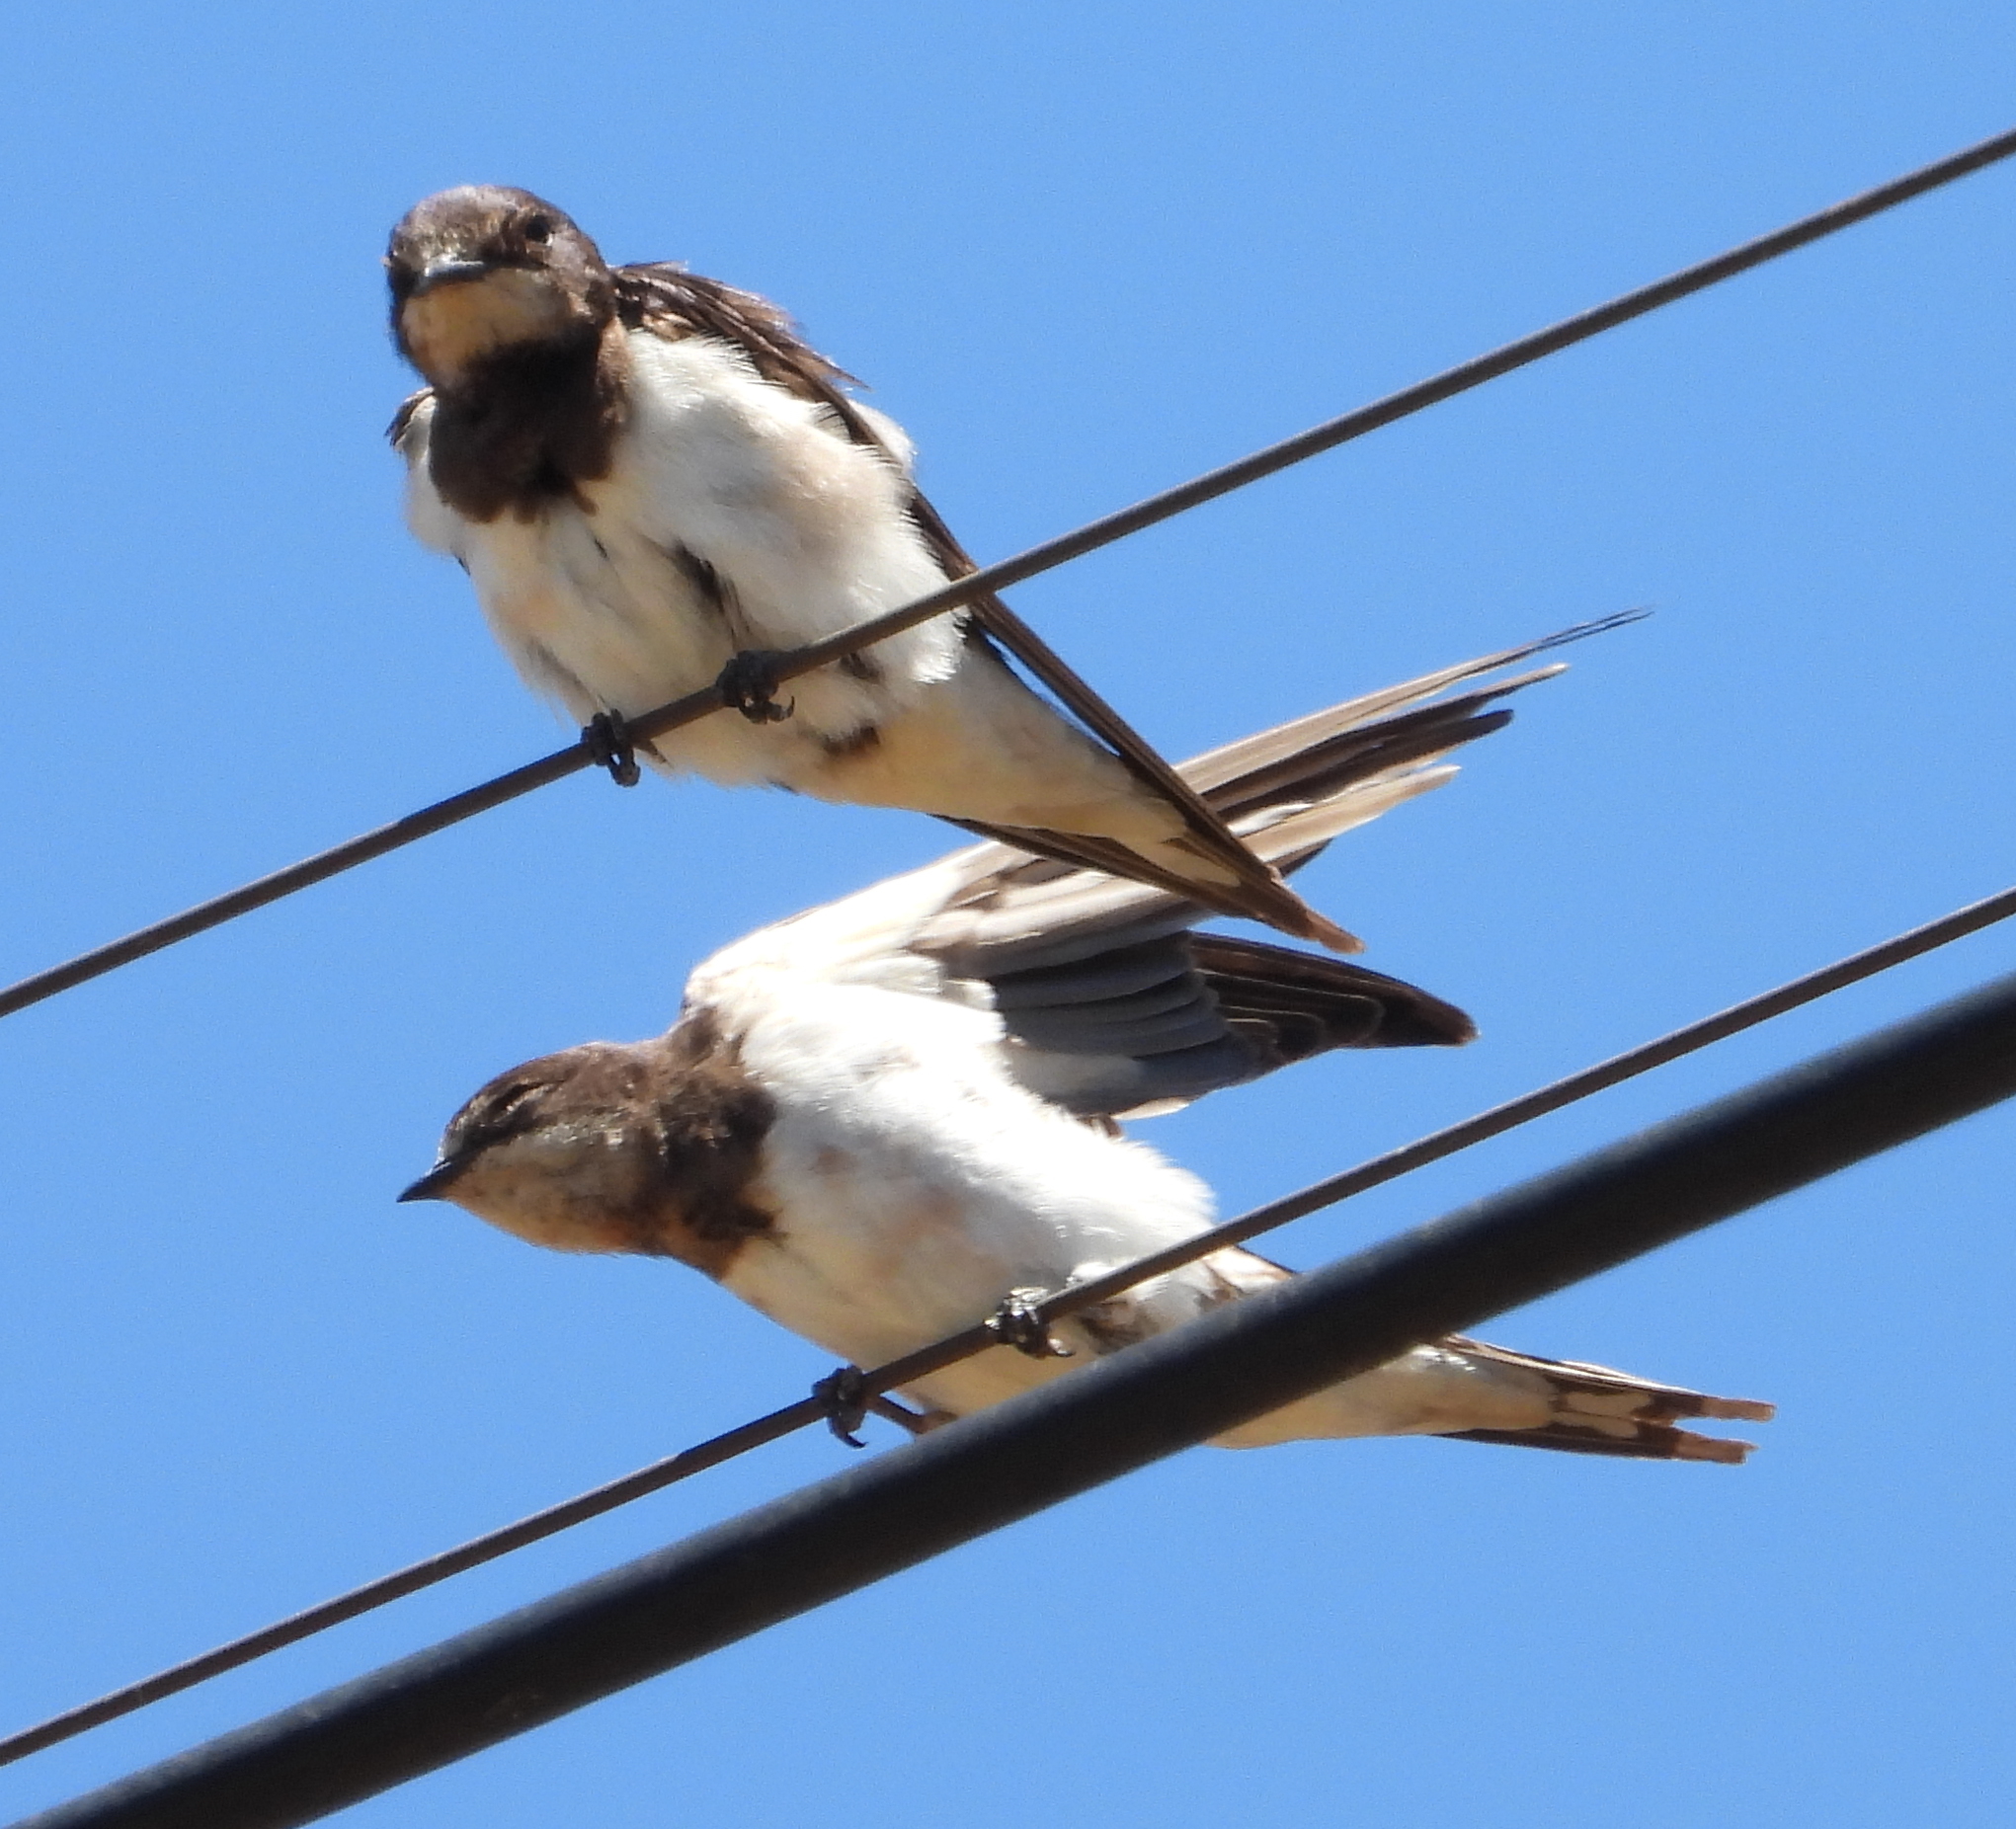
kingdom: Animalia
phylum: Chordata
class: Aves
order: Passeriformes
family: Hirundinidae
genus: Hirundo
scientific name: Hirundo rustica
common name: Barn swallow
